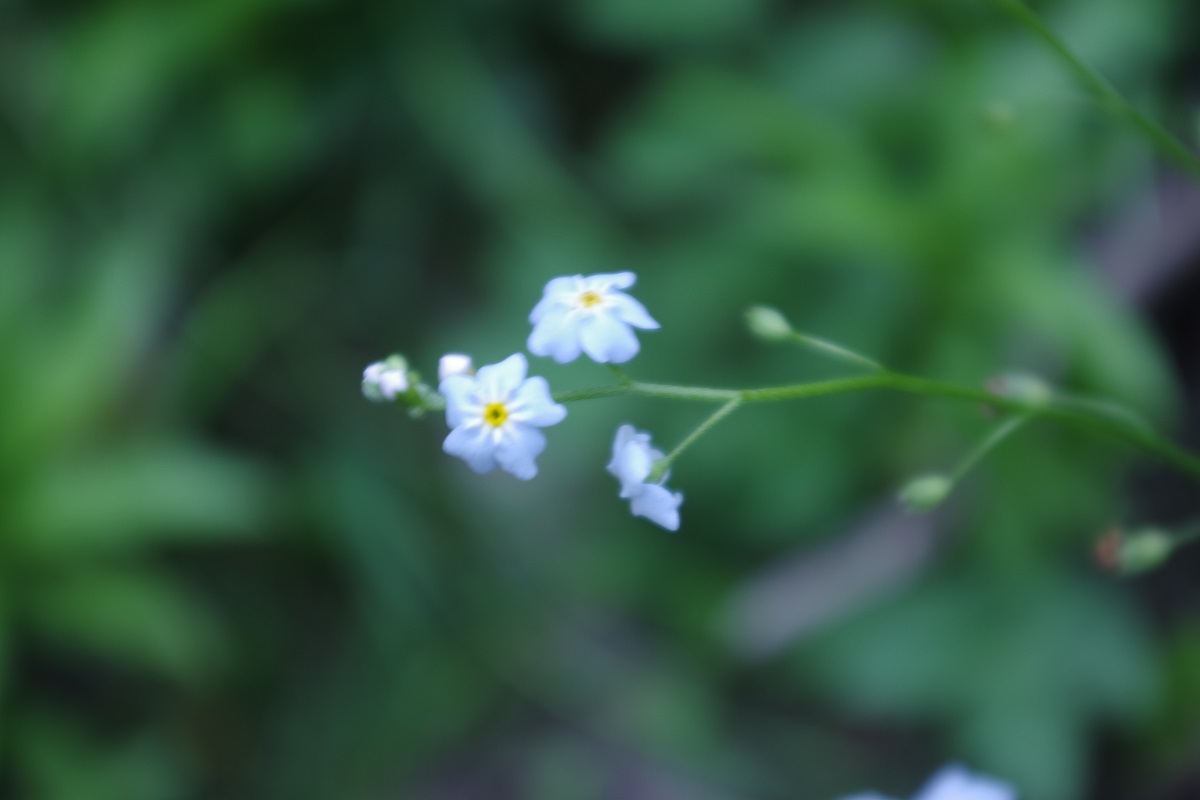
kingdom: Plantae
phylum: Tracheophyta
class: Magnoliopsida
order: Boraginales
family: Boraginaceae
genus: Myosotis
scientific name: Myosotis scorpioides
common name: Water forget-me-not
